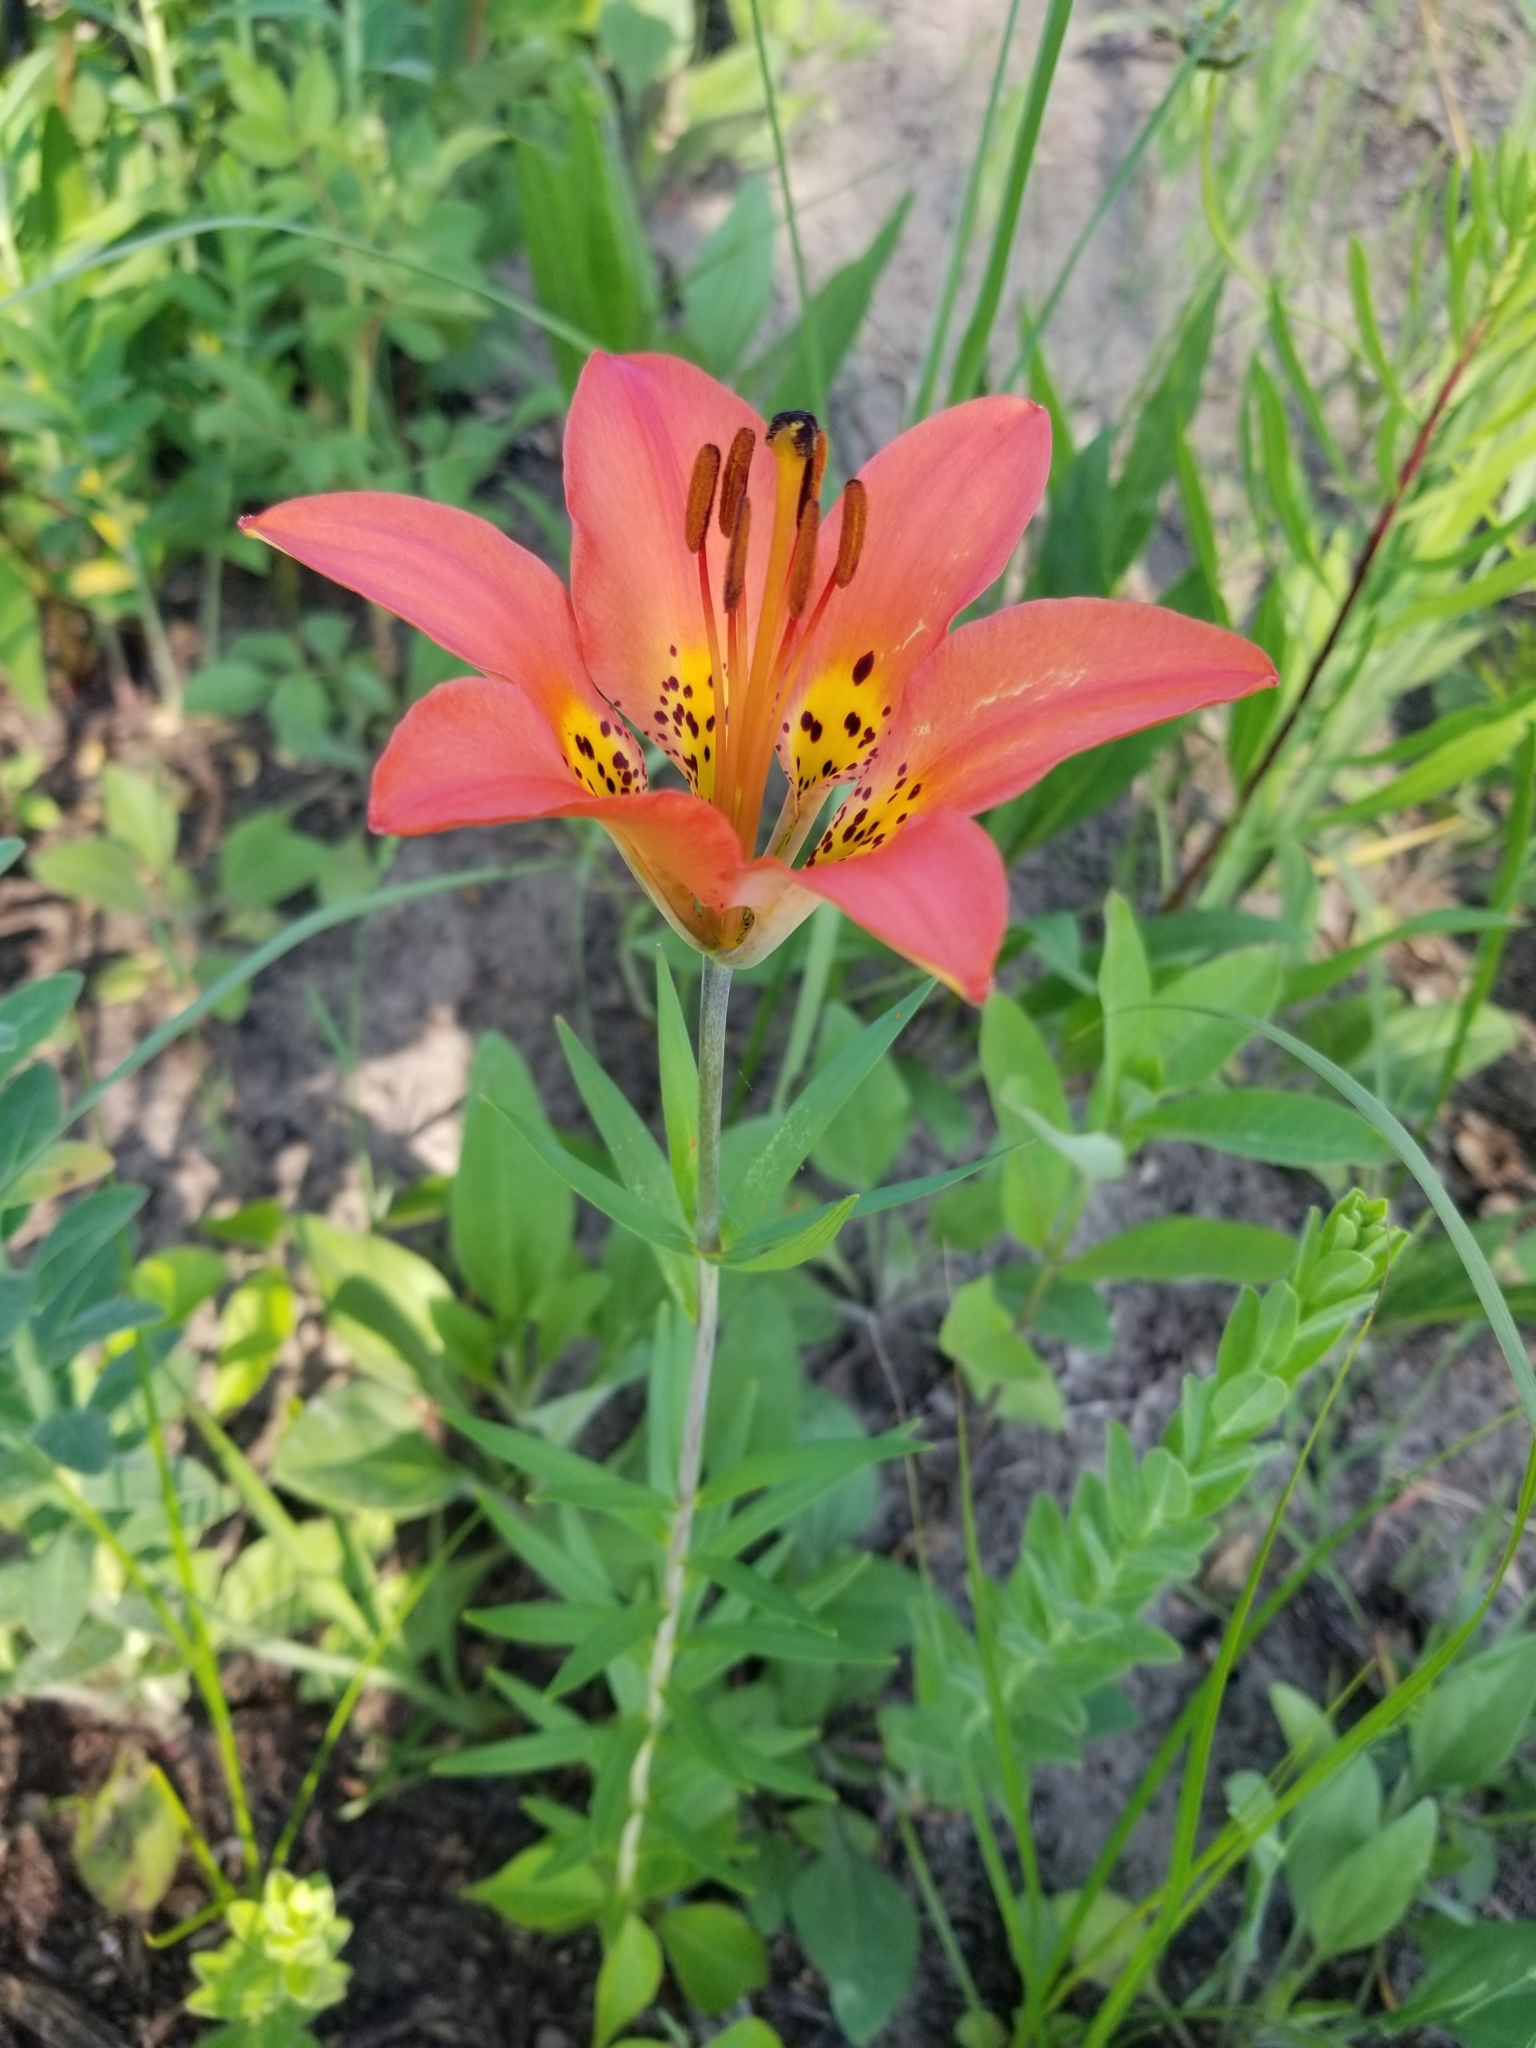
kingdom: Plantae
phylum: Tracheophyta
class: Liliopsida
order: Liliales
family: Liliaceae
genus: Lilium
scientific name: Lilium philadelphicum
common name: Red lily
